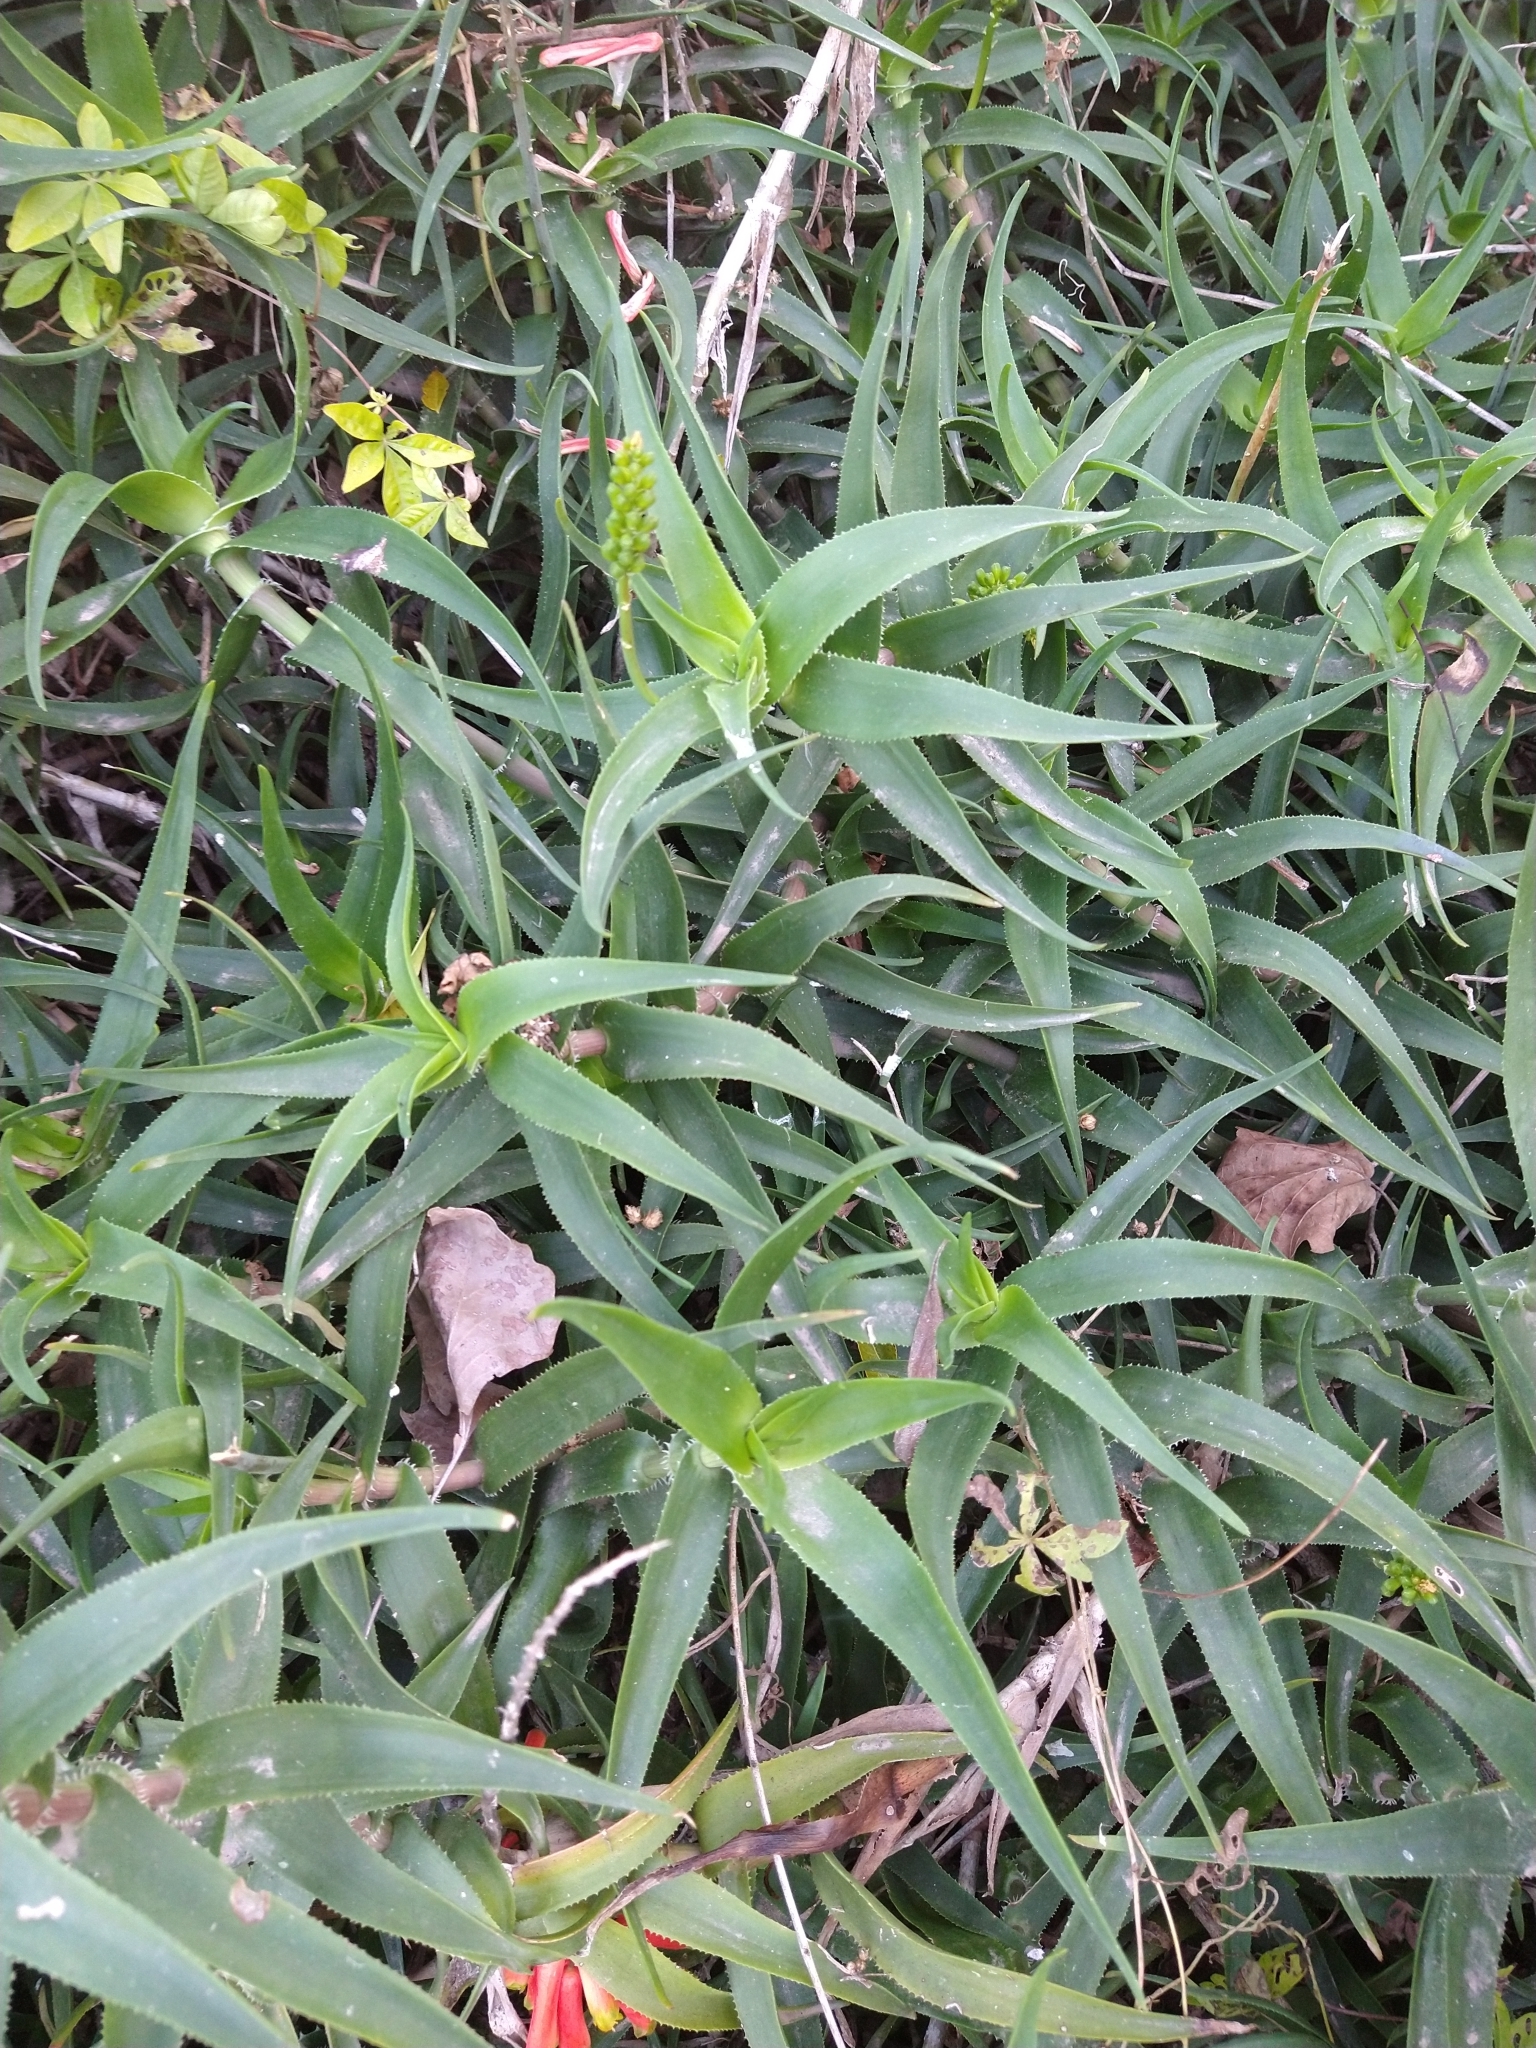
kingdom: Plantae
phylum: Tracheophyta
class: Liliopsida
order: Asparagales
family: Asphodelaceae
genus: Aloiampelos
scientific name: Aloiampelos ciliaris
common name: Climbing aloe
